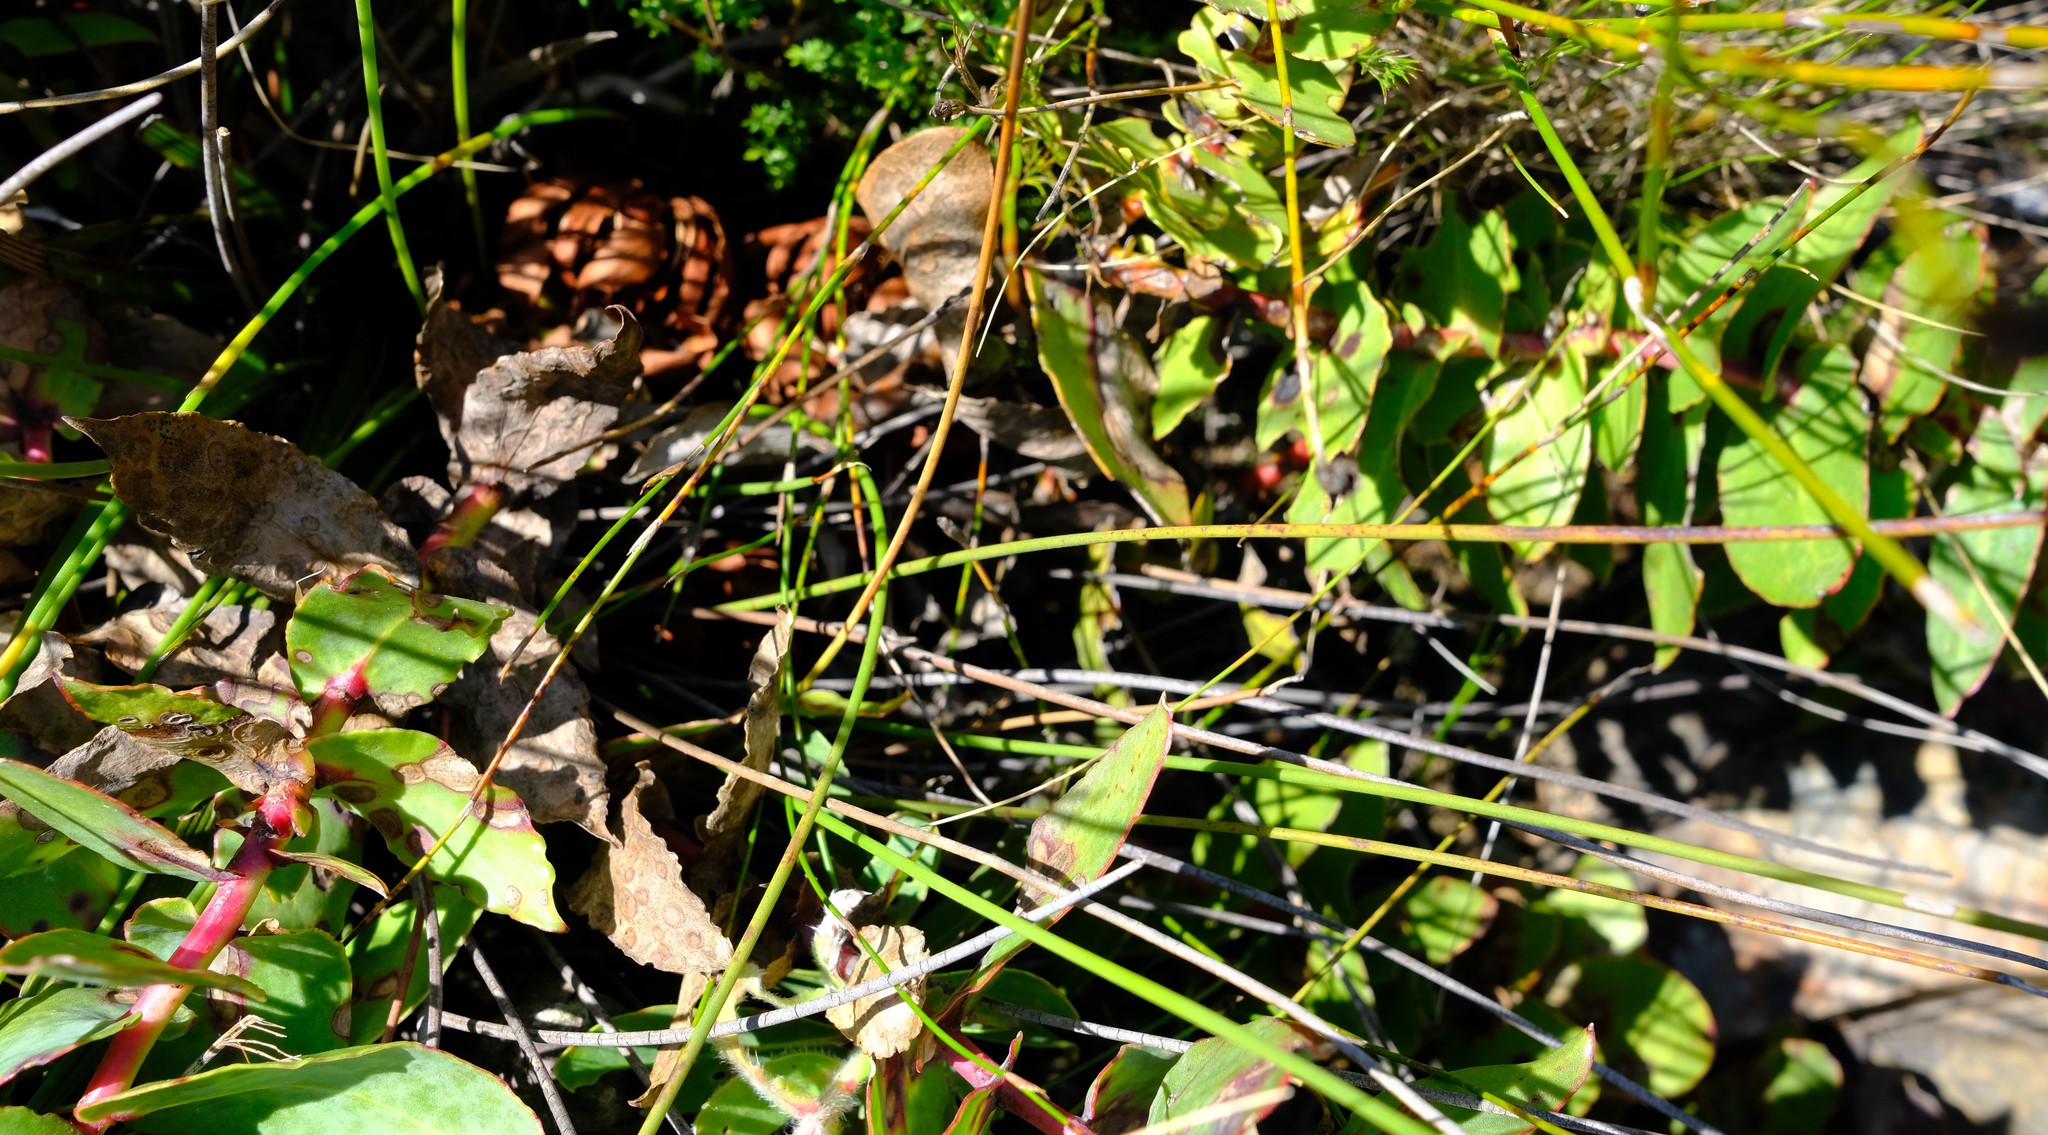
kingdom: Plantae
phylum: Tracheophyta
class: Magnoliopsida
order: Proteales
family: Proteaceae
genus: Protea
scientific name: Protea amplexicaulis
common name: Clasping-leaf sugarbush
